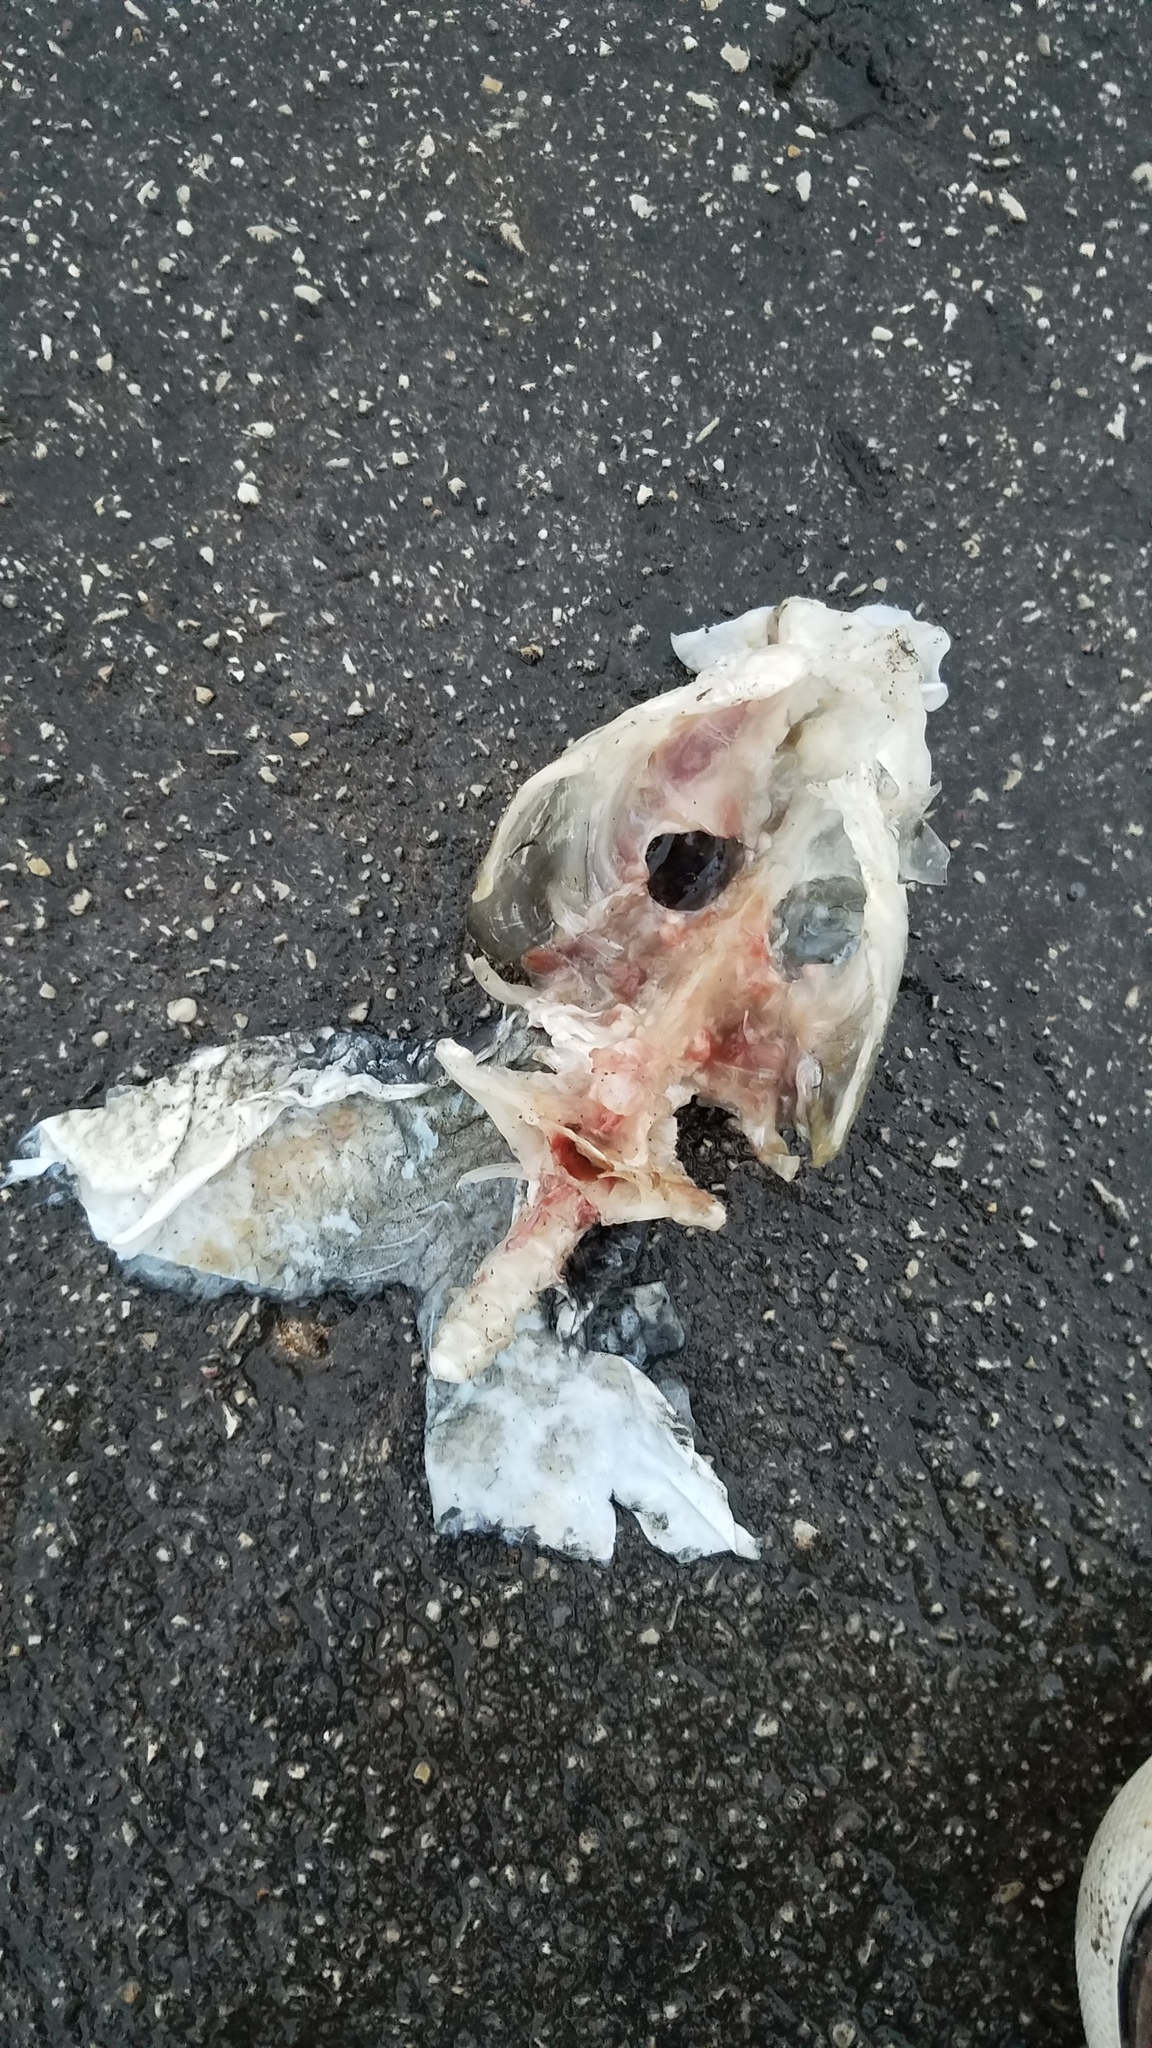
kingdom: Animalia
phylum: Chordata
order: Cypriniformes
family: Catostomidae
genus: Catostomus
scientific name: Catostomus
